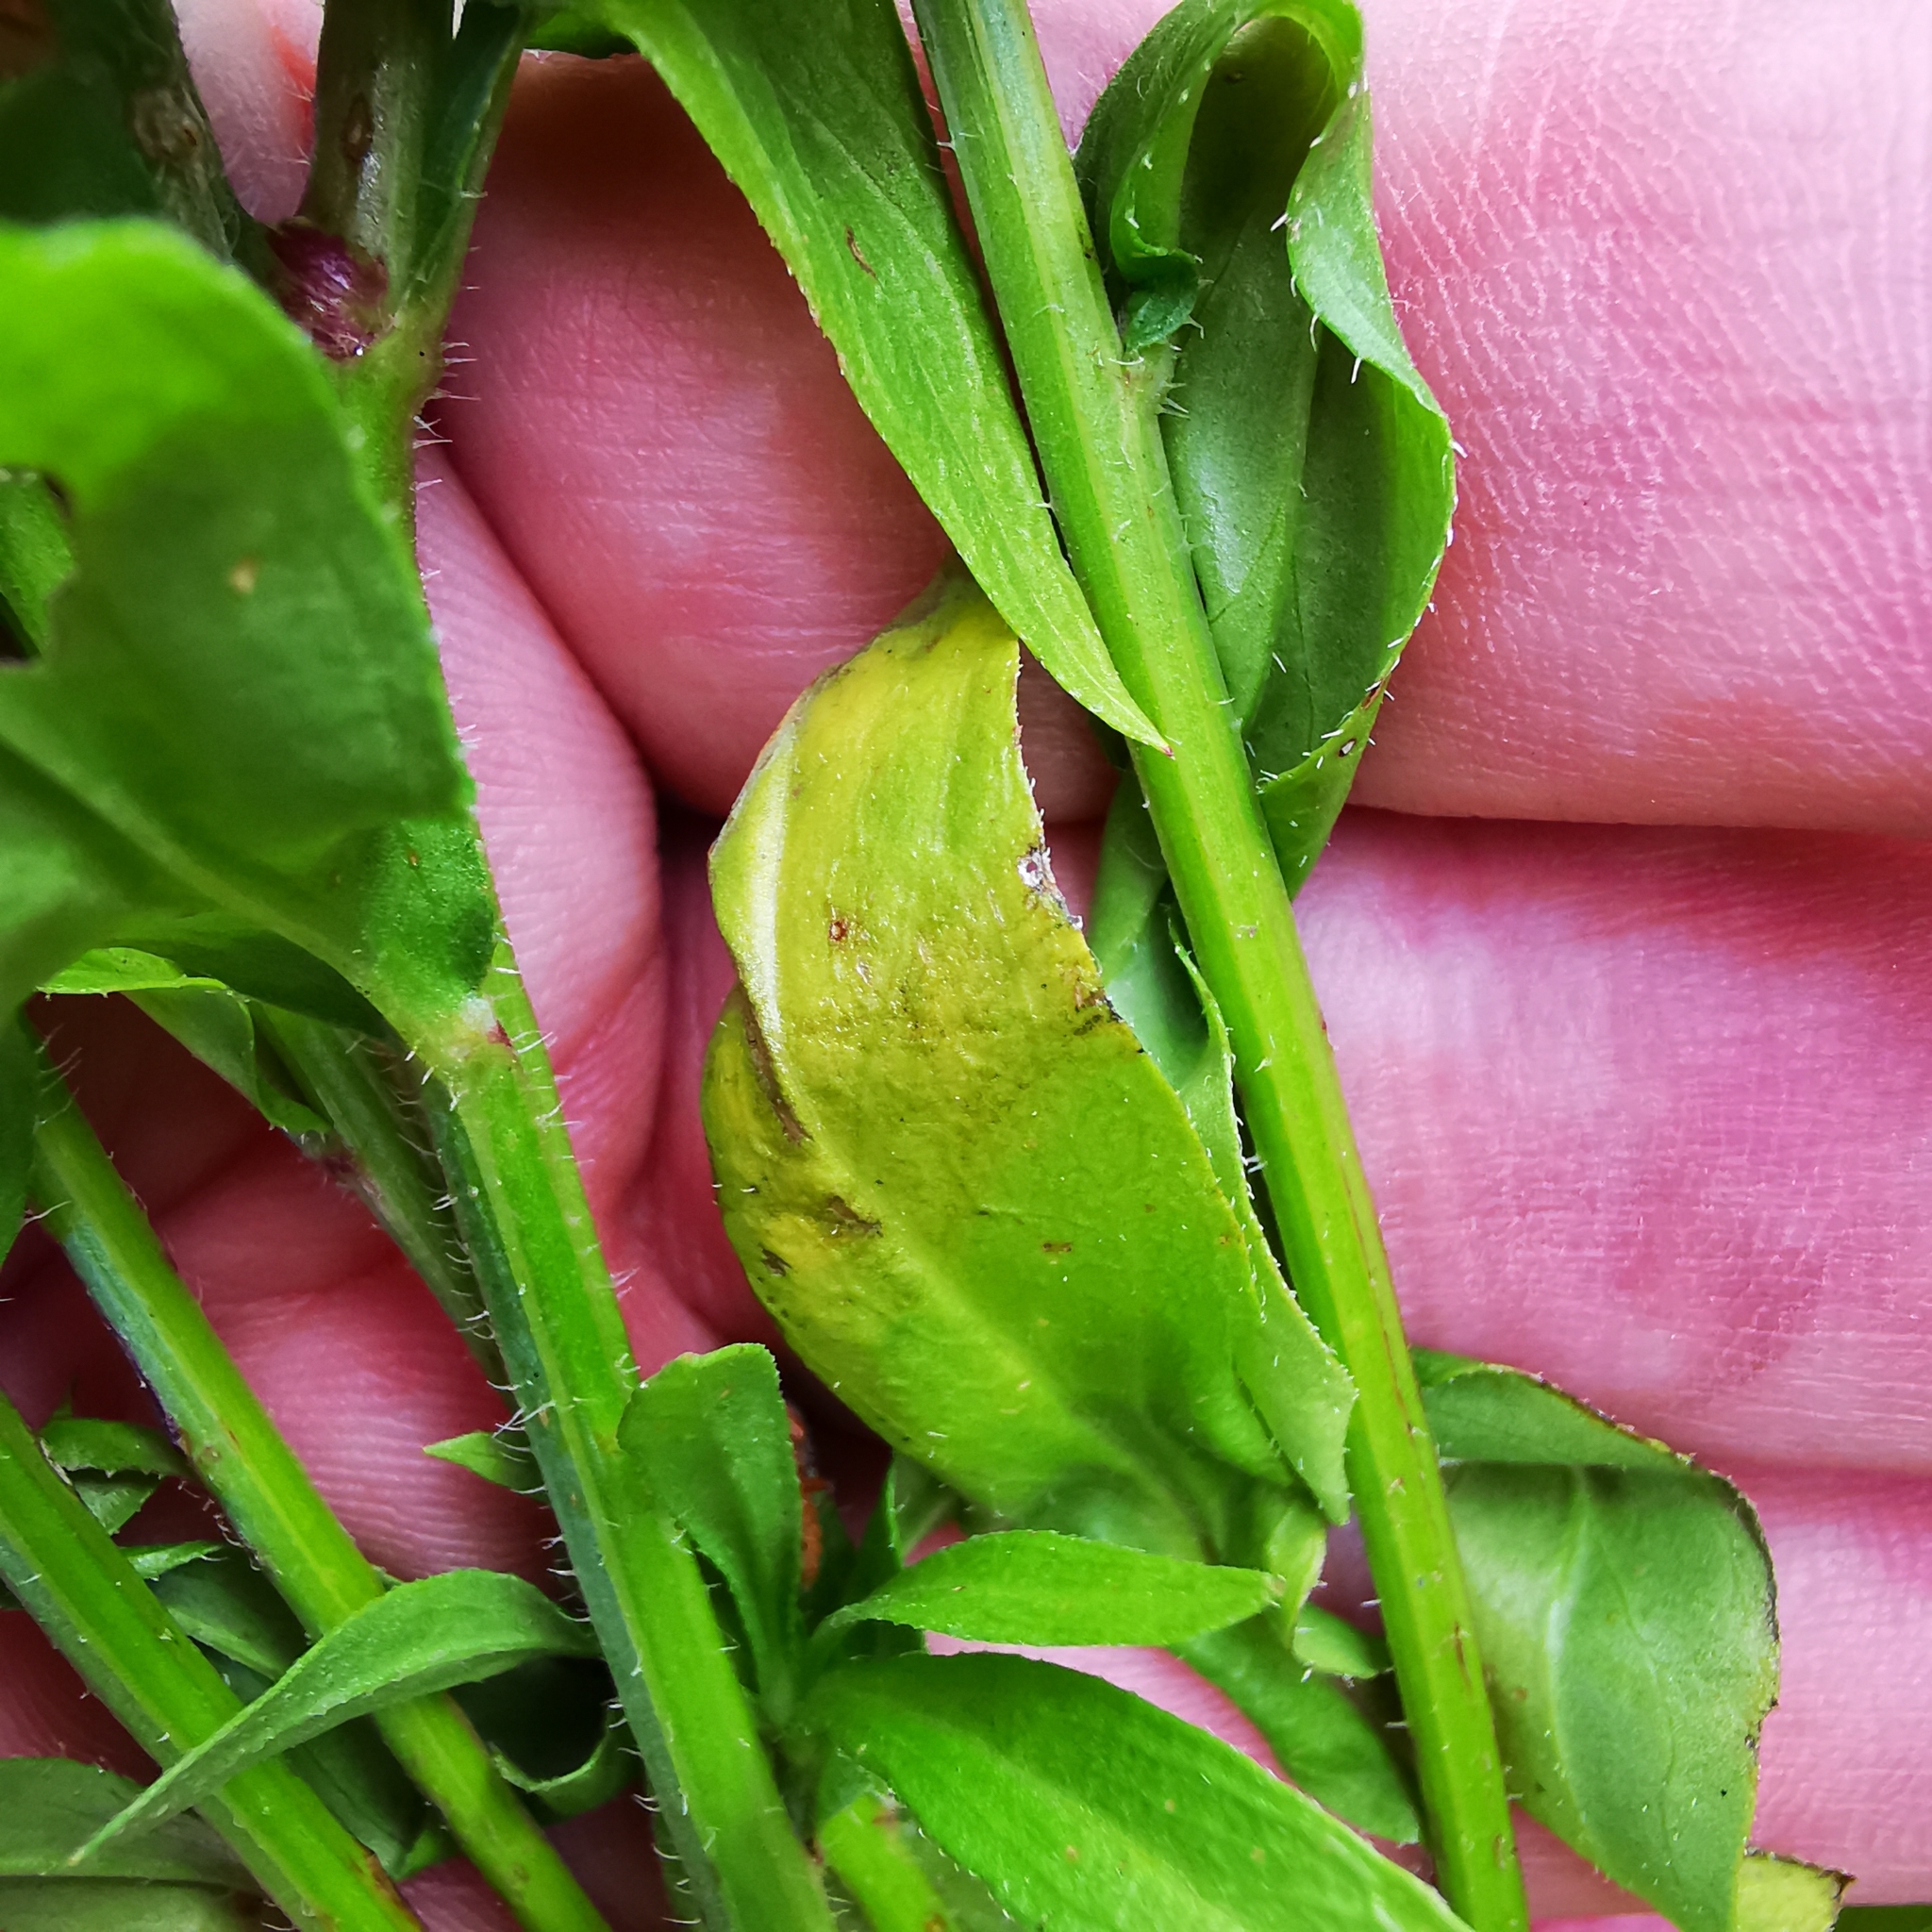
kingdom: Plantae
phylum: Tracheophyta
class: Magnoliopsida
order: Asterales
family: Asteraceae
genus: Erigeron
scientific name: Erigeron strigosus
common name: Common eastern fleabane
